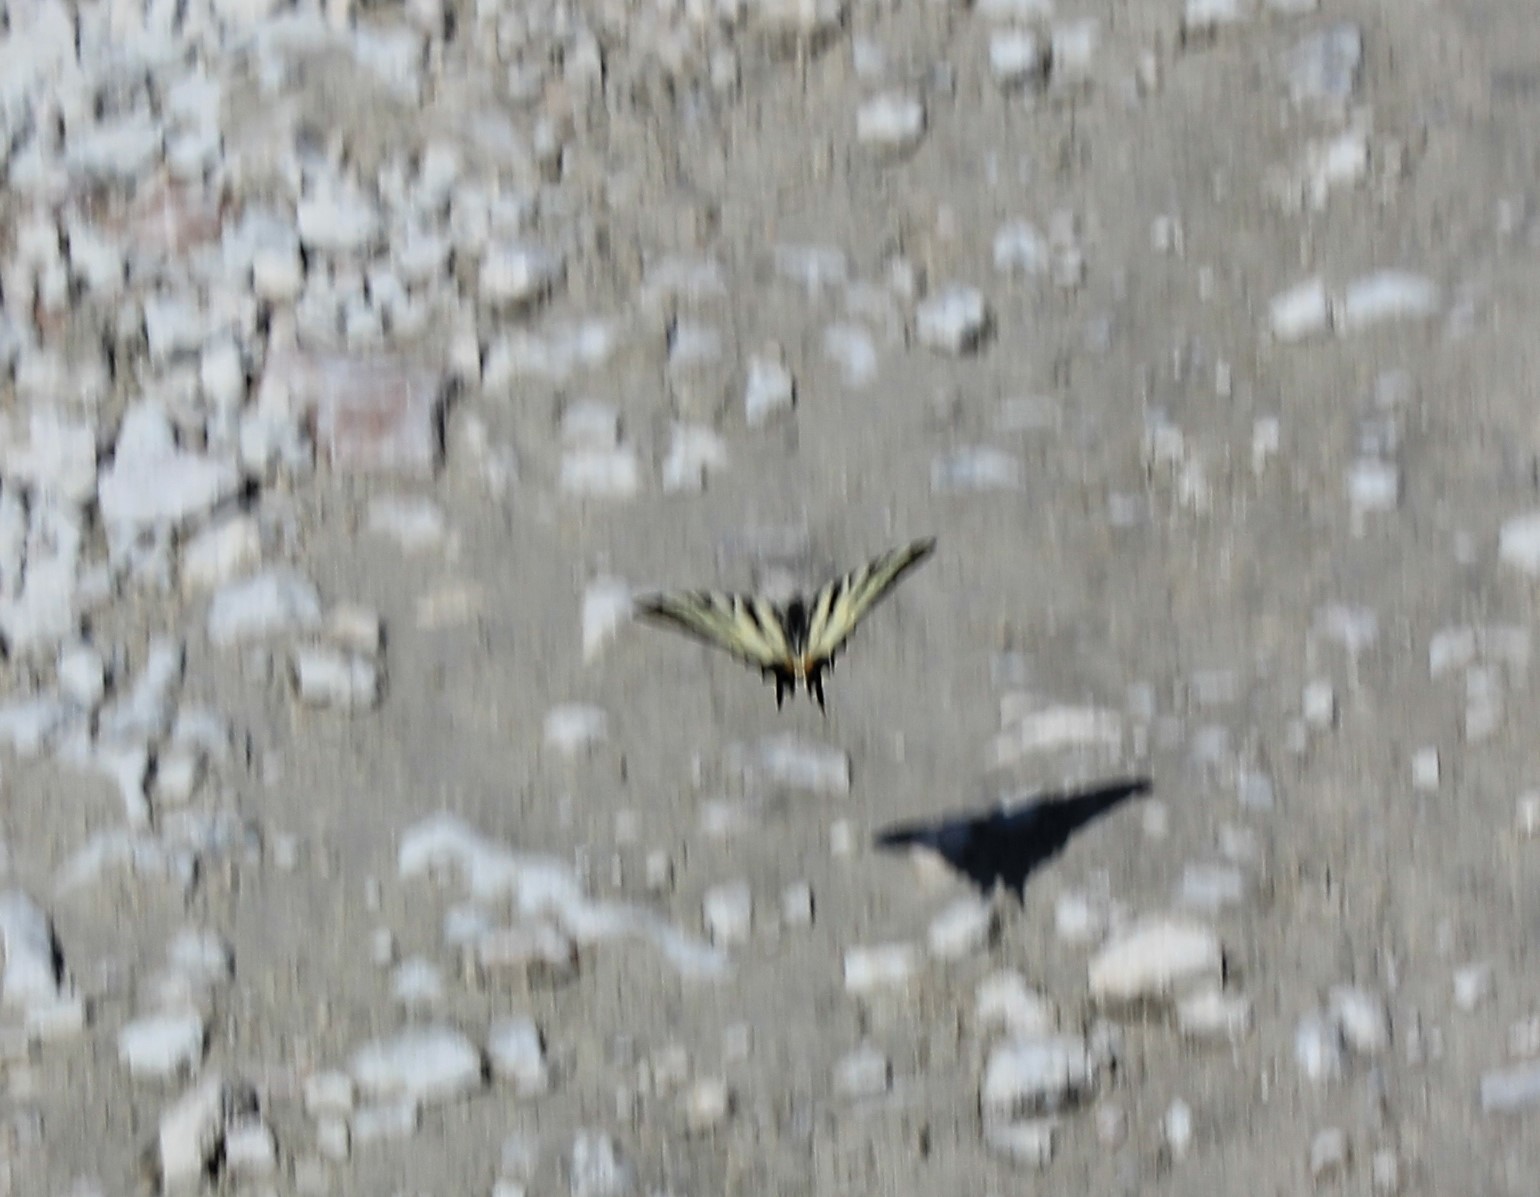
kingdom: Animalia
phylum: Arthropoda
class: Insecta
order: Lepidoptera
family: Papilionidae
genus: Iphiclides
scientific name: Iphiclides podalirius
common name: Scarce swallowtail
